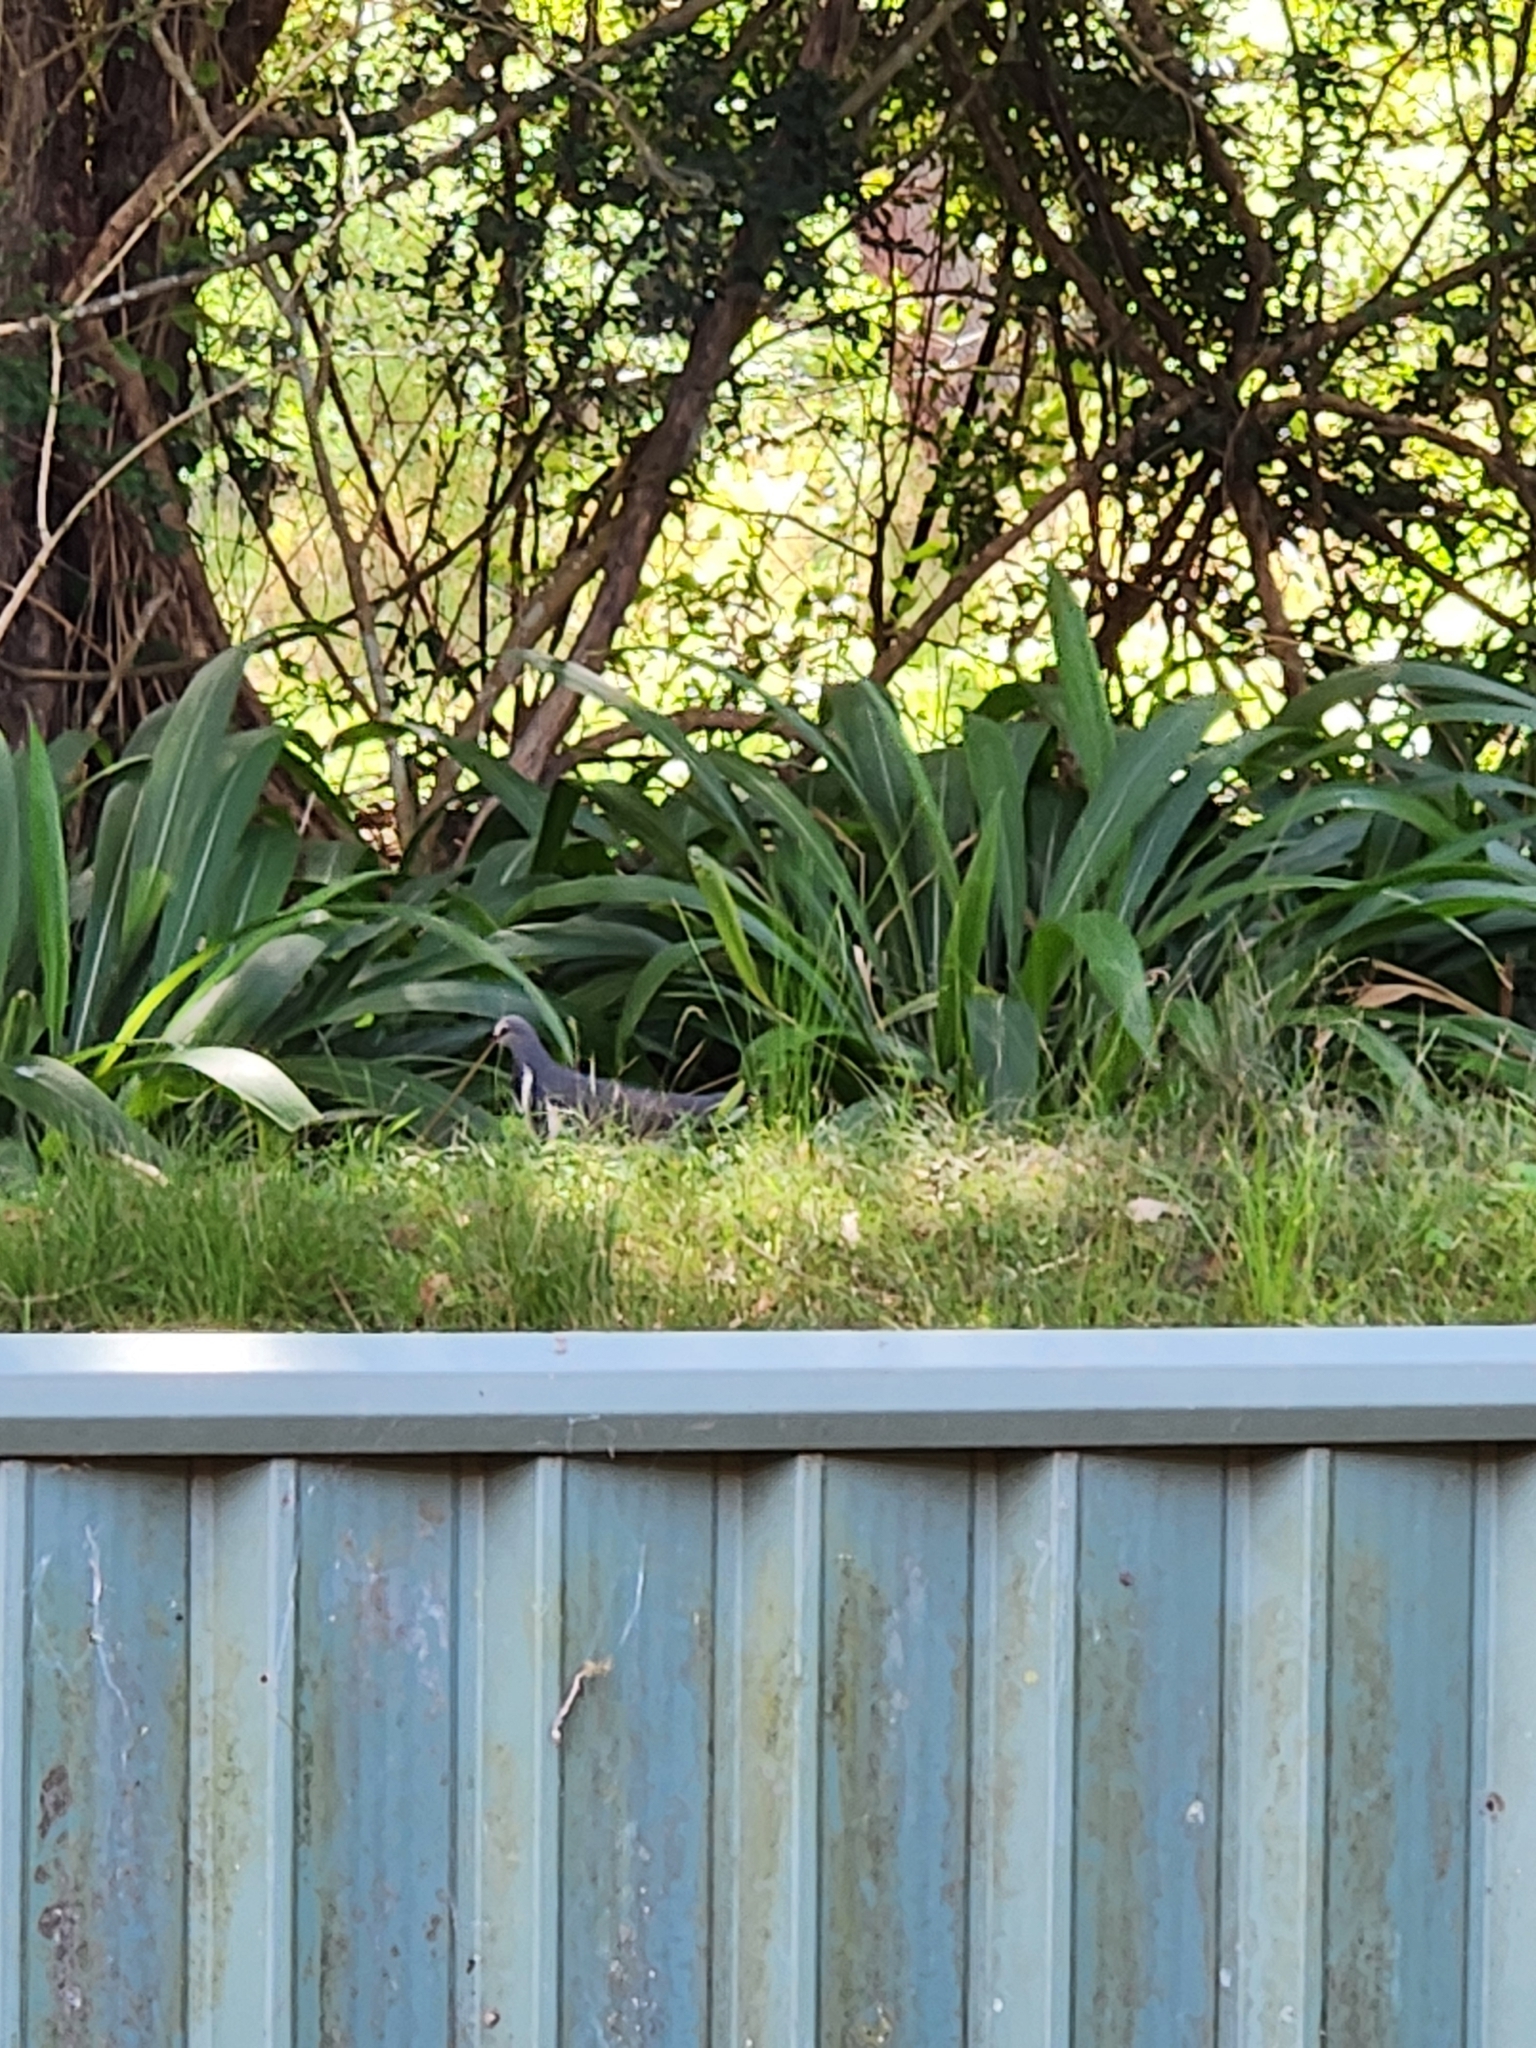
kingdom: Animalia
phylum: Chordata
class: Aves
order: Columbiformes
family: Columbidae
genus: Leucosarcia
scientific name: Leucosarcia melanoleuca
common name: Wonga pigeon
